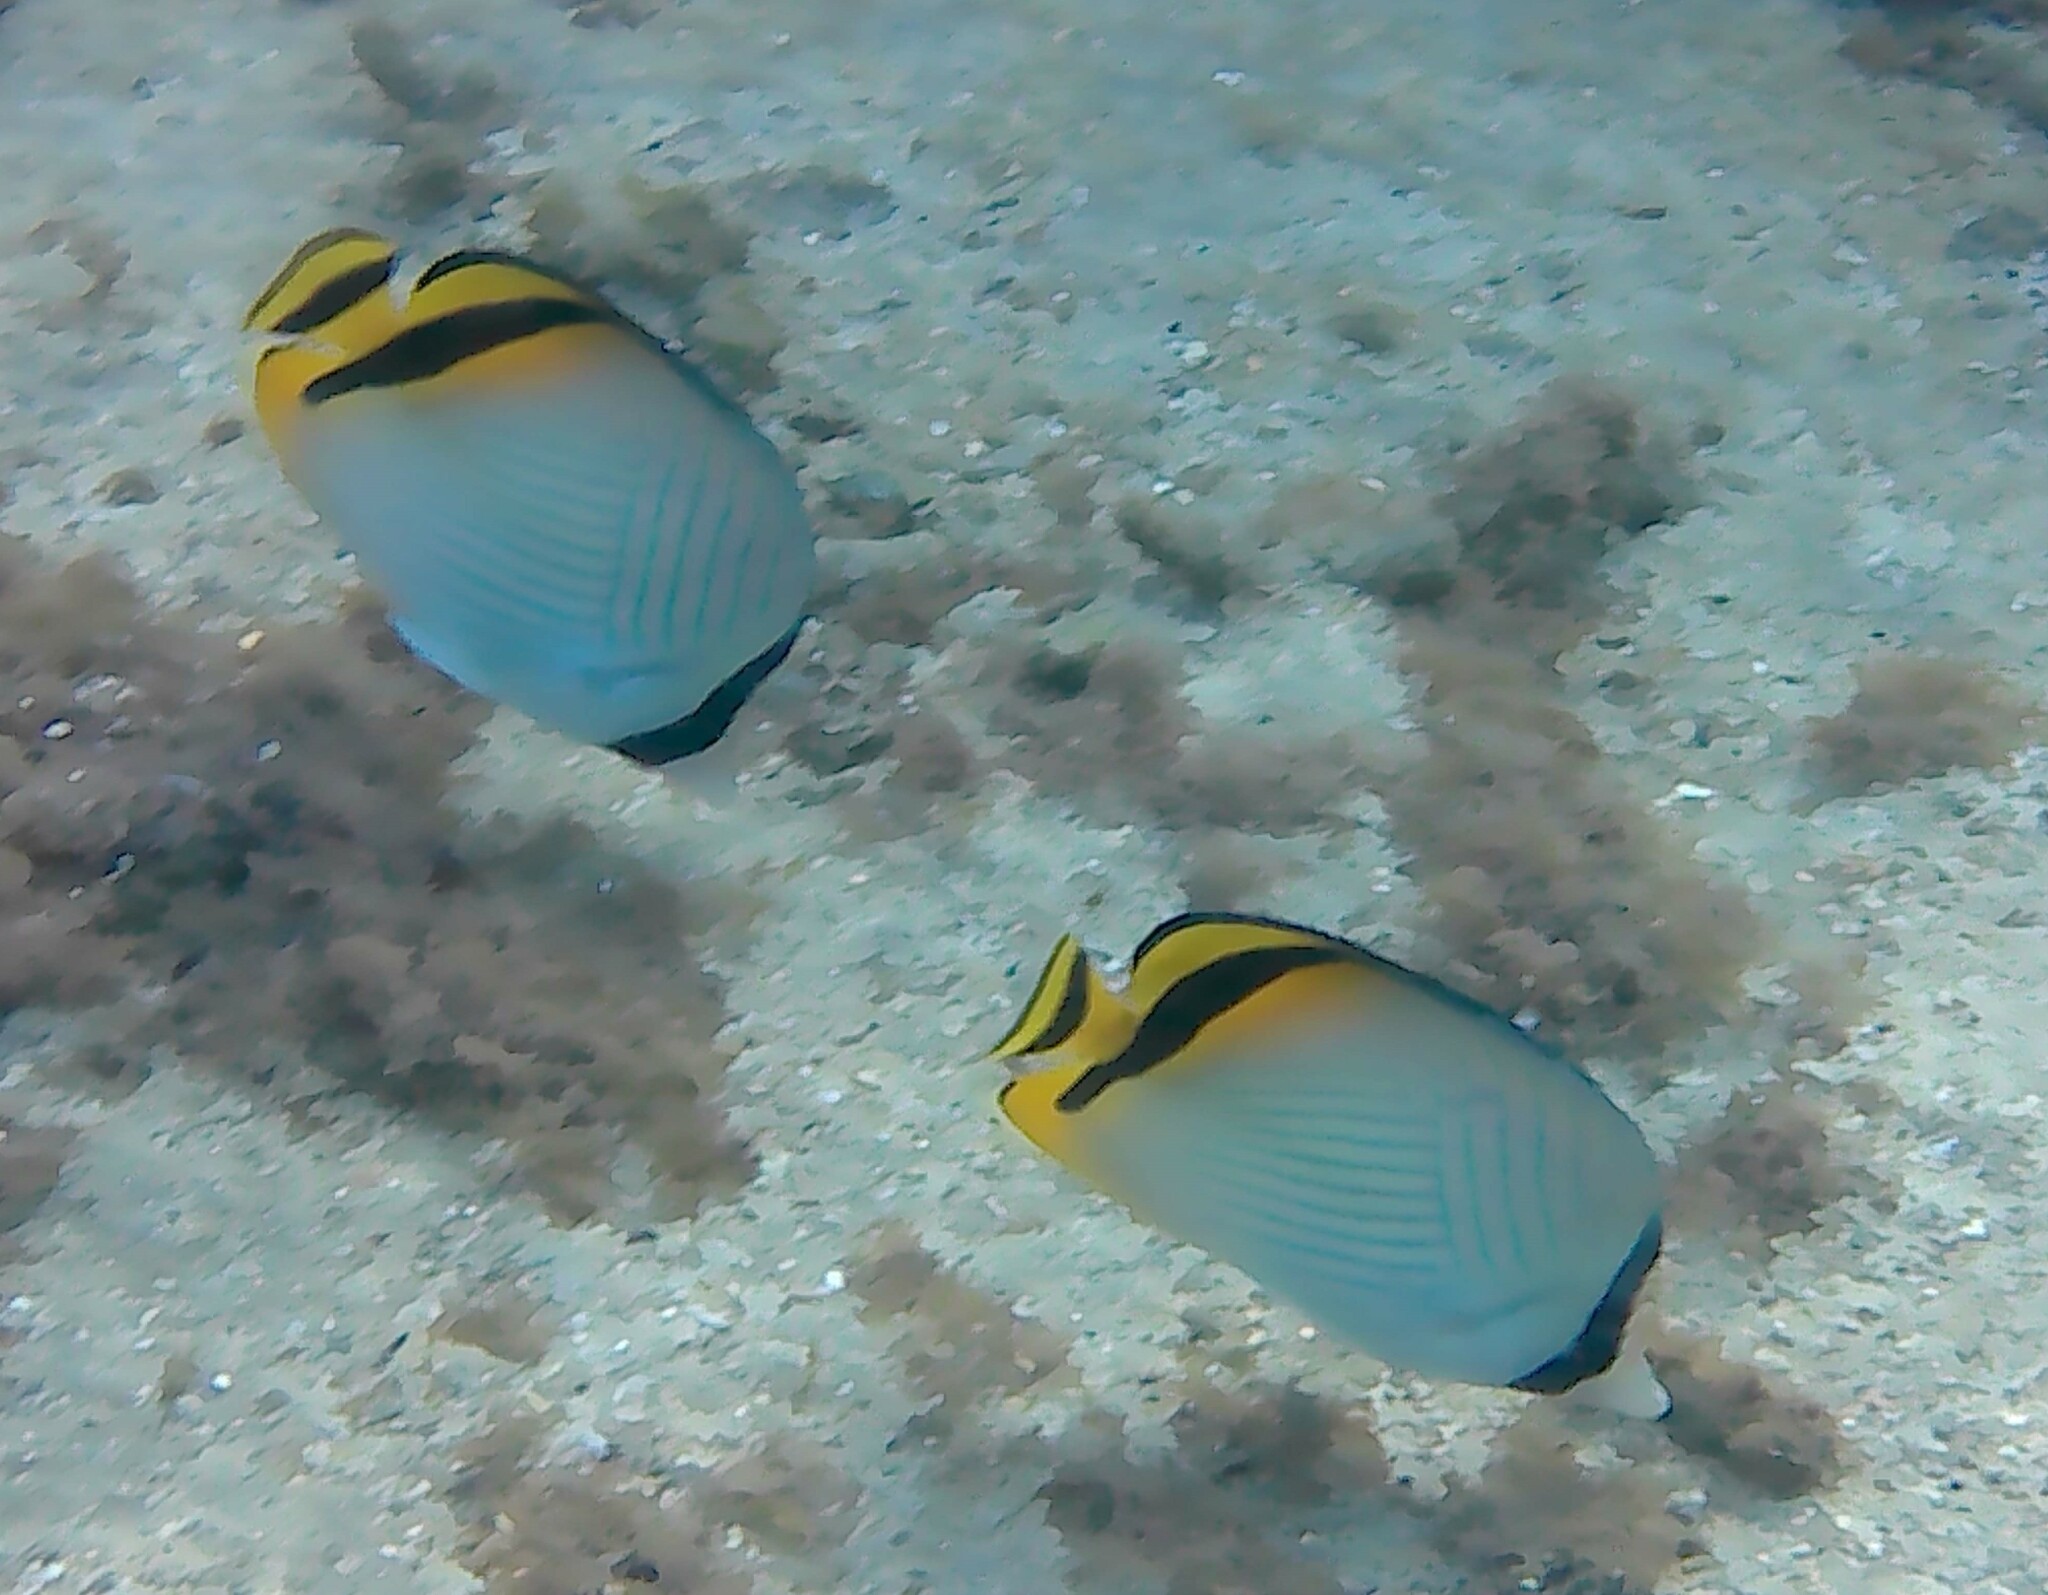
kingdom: Animalia
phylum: Chordata
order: Perciformes
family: Chaetodontidae
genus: Chaetodon
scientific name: Chaetodon vagabundus
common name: Vagabond butterflyfish
